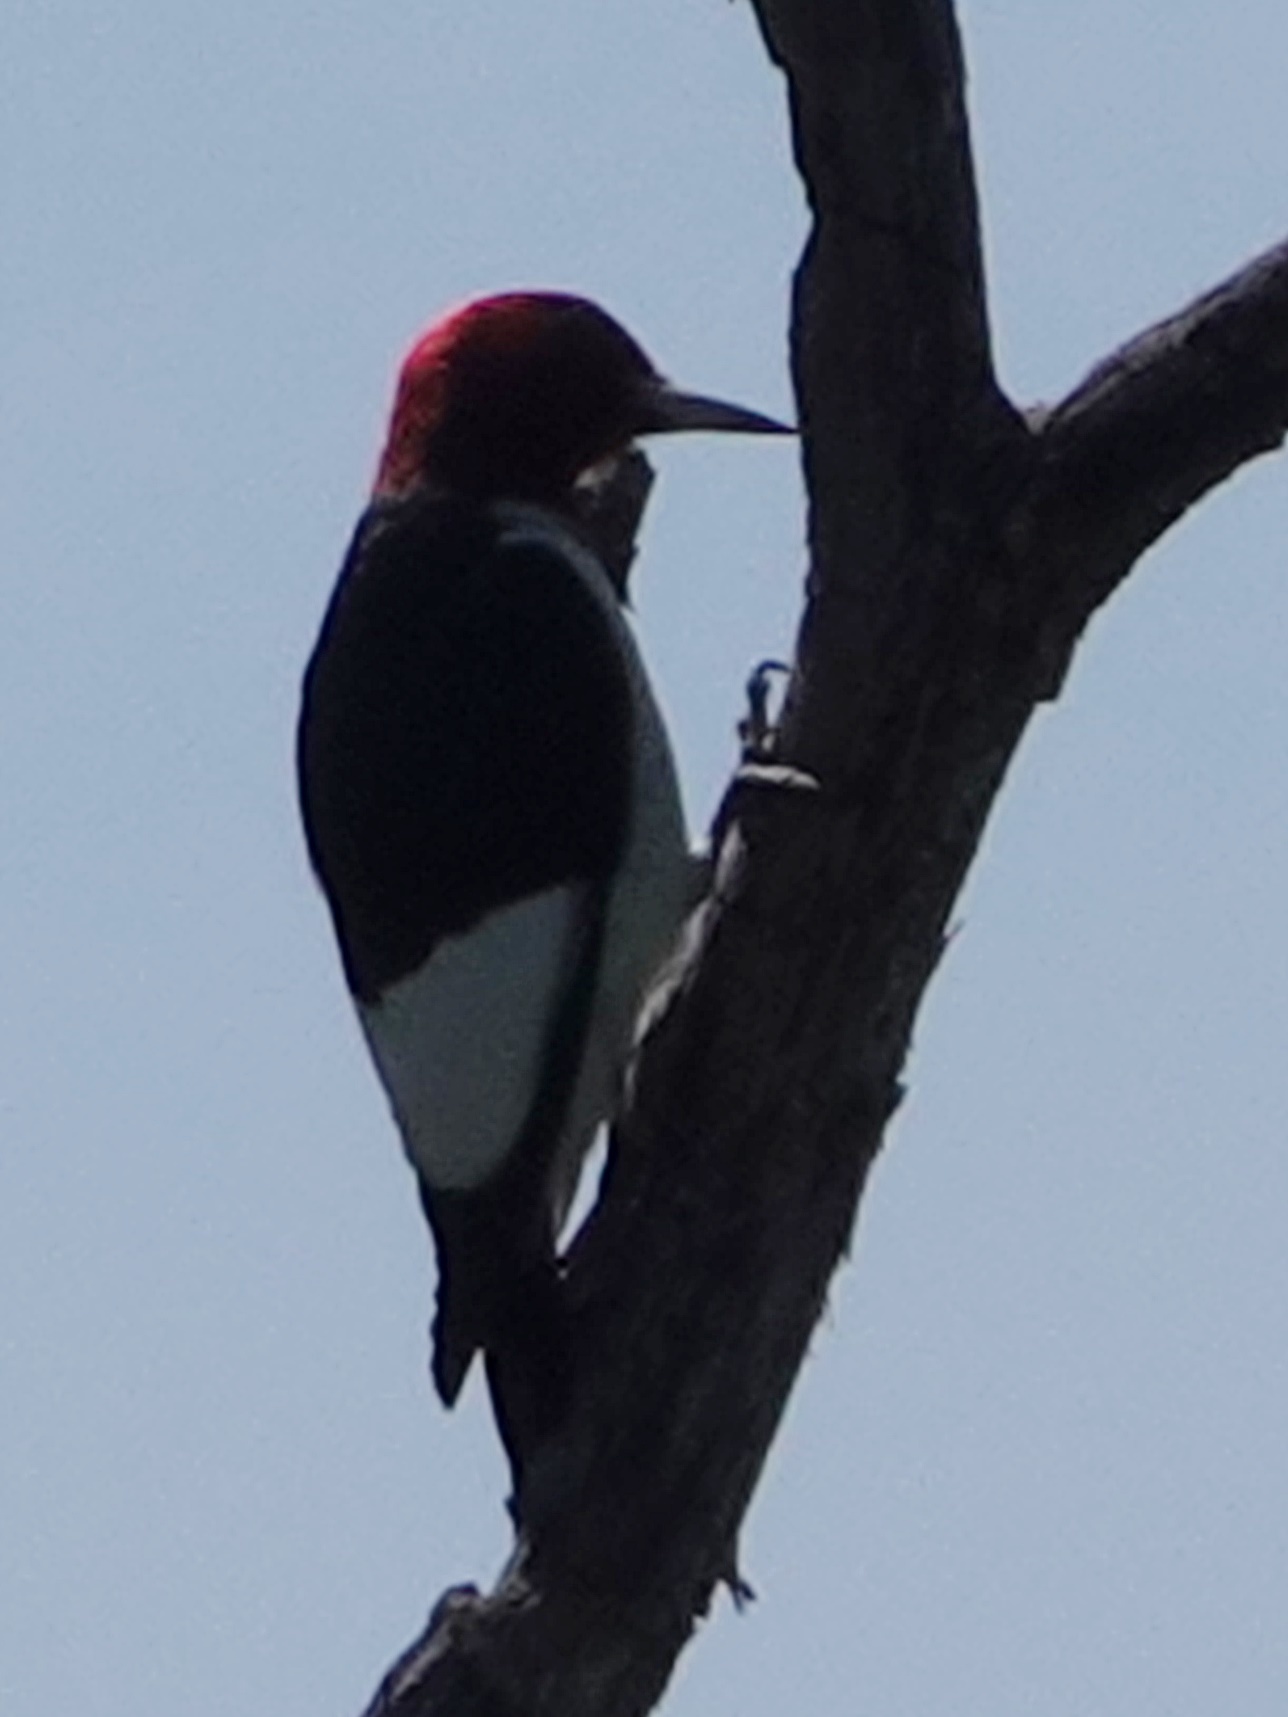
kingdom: Animalia
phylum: Chordata
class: Aves
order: Piciformes
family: Picidae
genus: Melanerpes
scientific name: Melanerpes erythrocephalus
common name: Red-headed woodpecker
